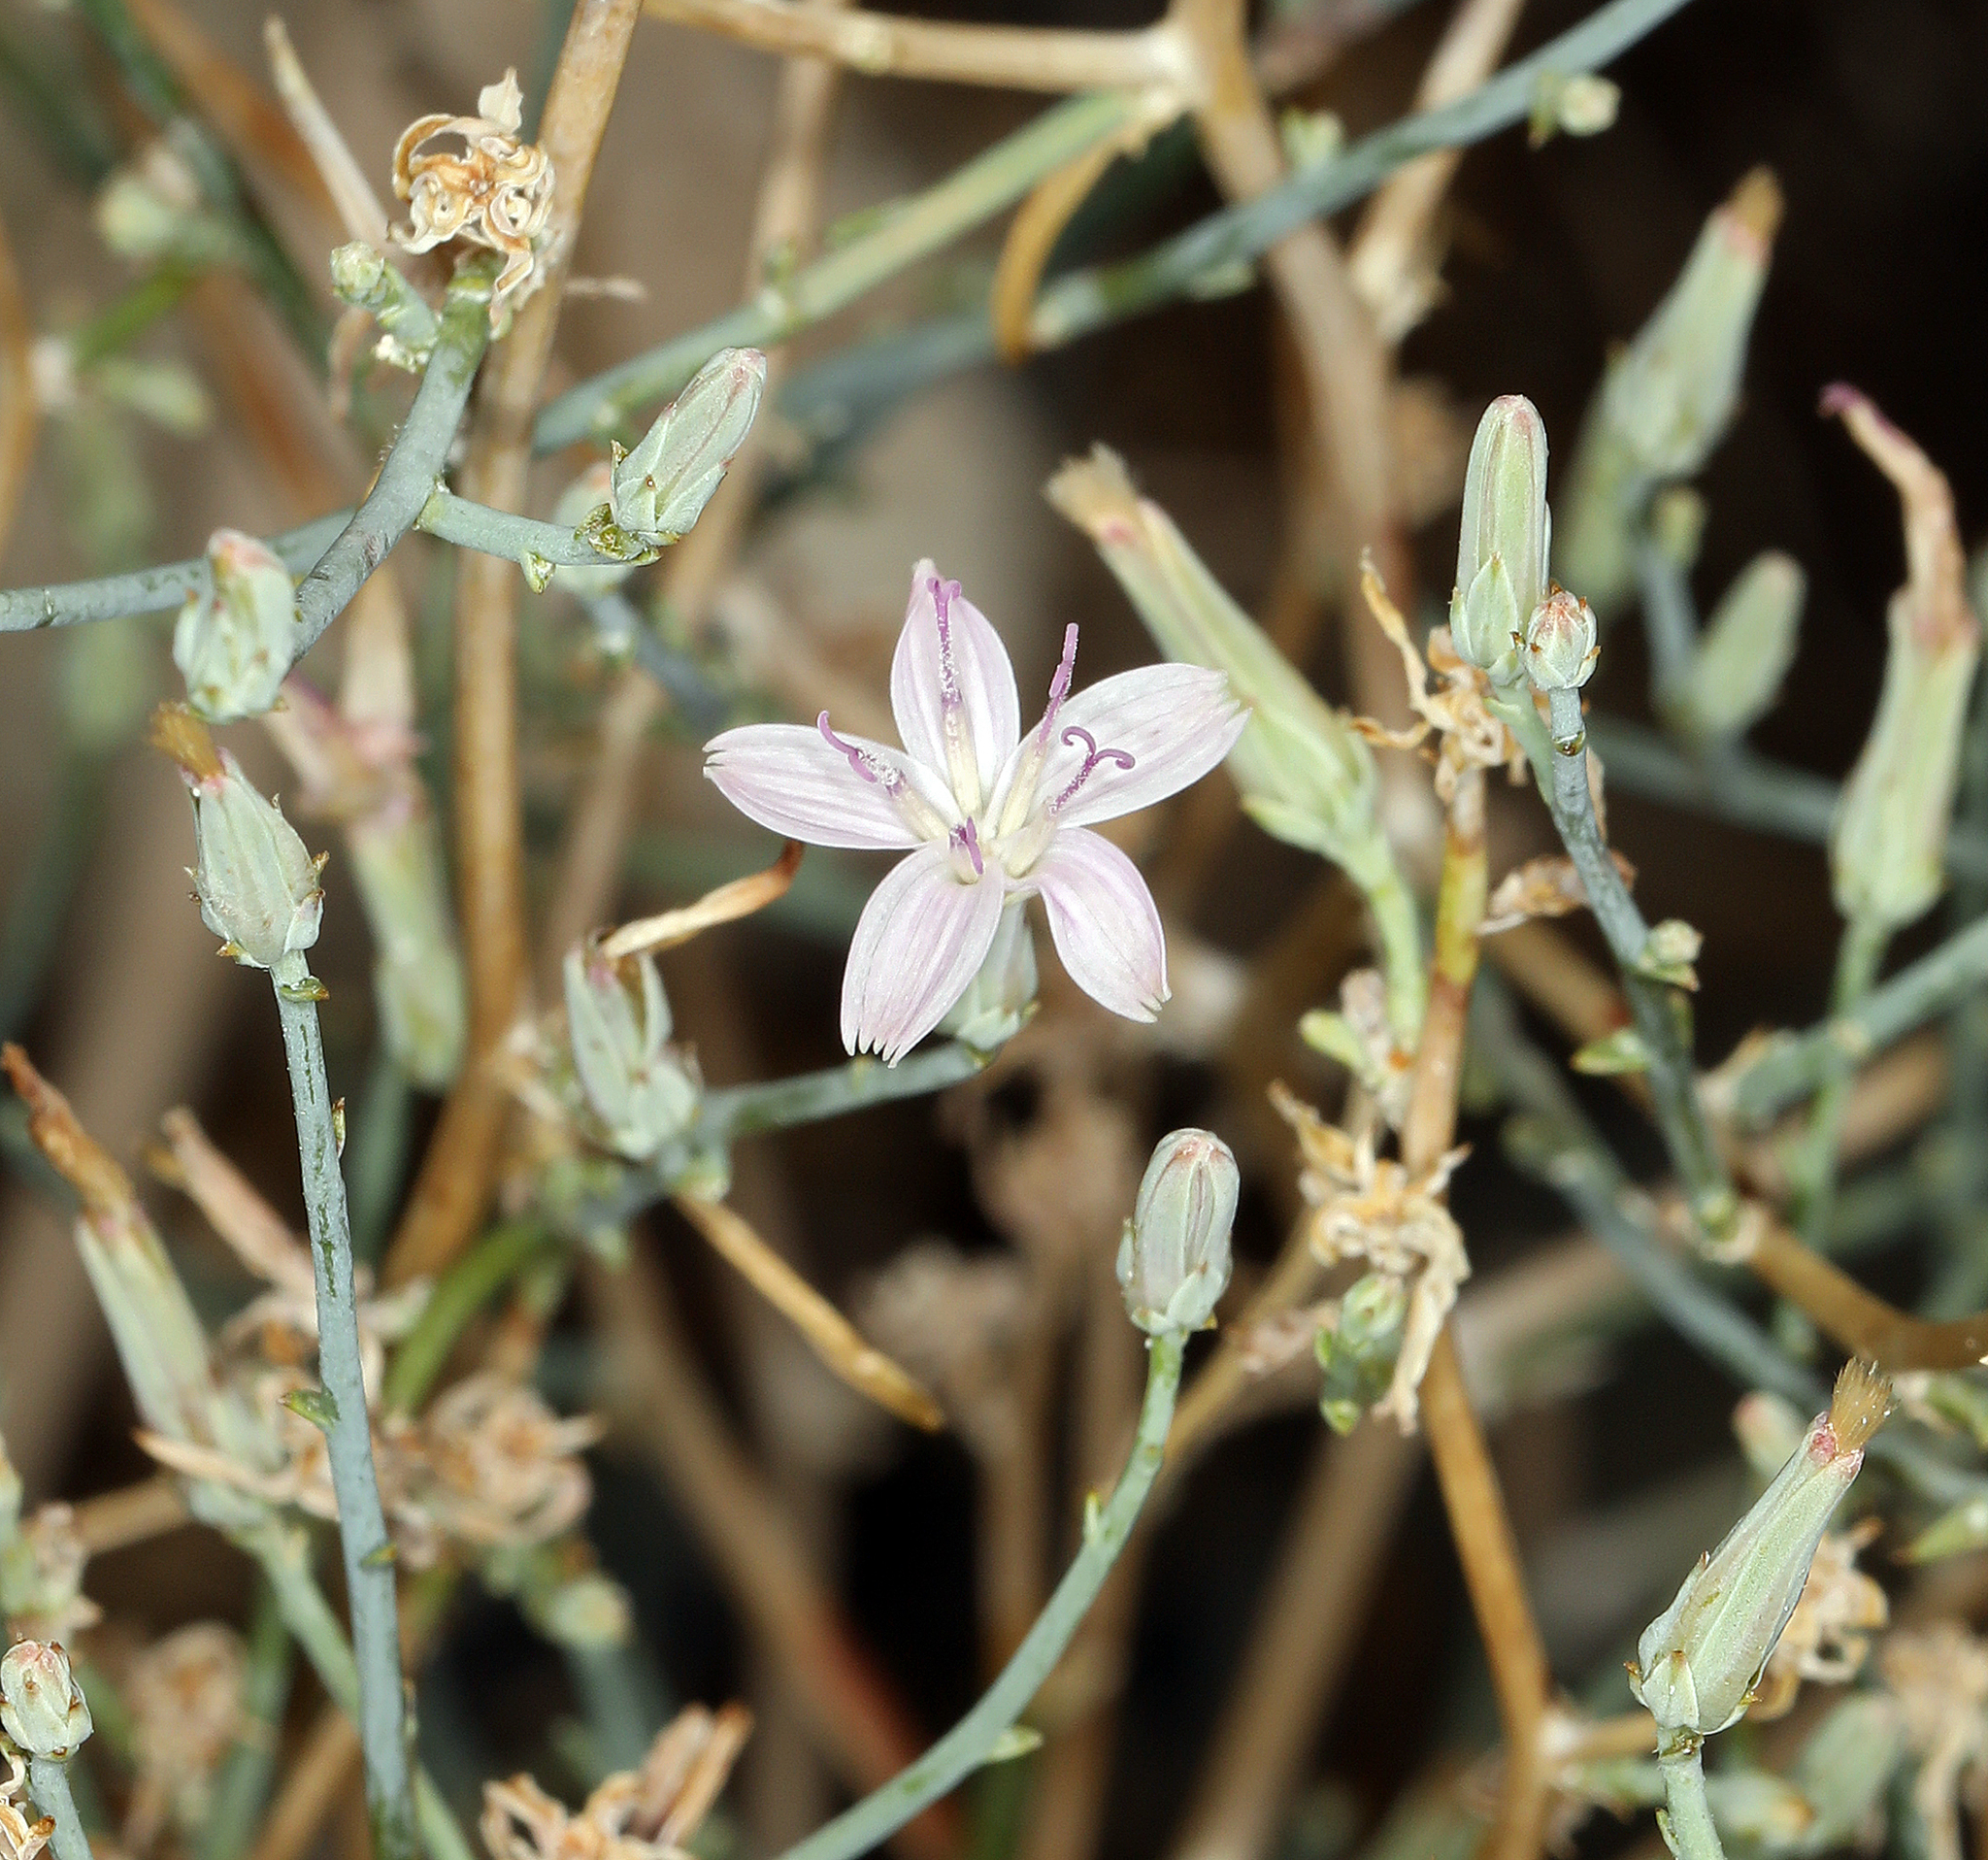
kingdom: Plantae
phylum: Tracheophyta
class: Magnoliopsida
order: Asterales
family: Asteraceae
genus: Stephanomeria
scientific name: Stephanomeria pauciflora
